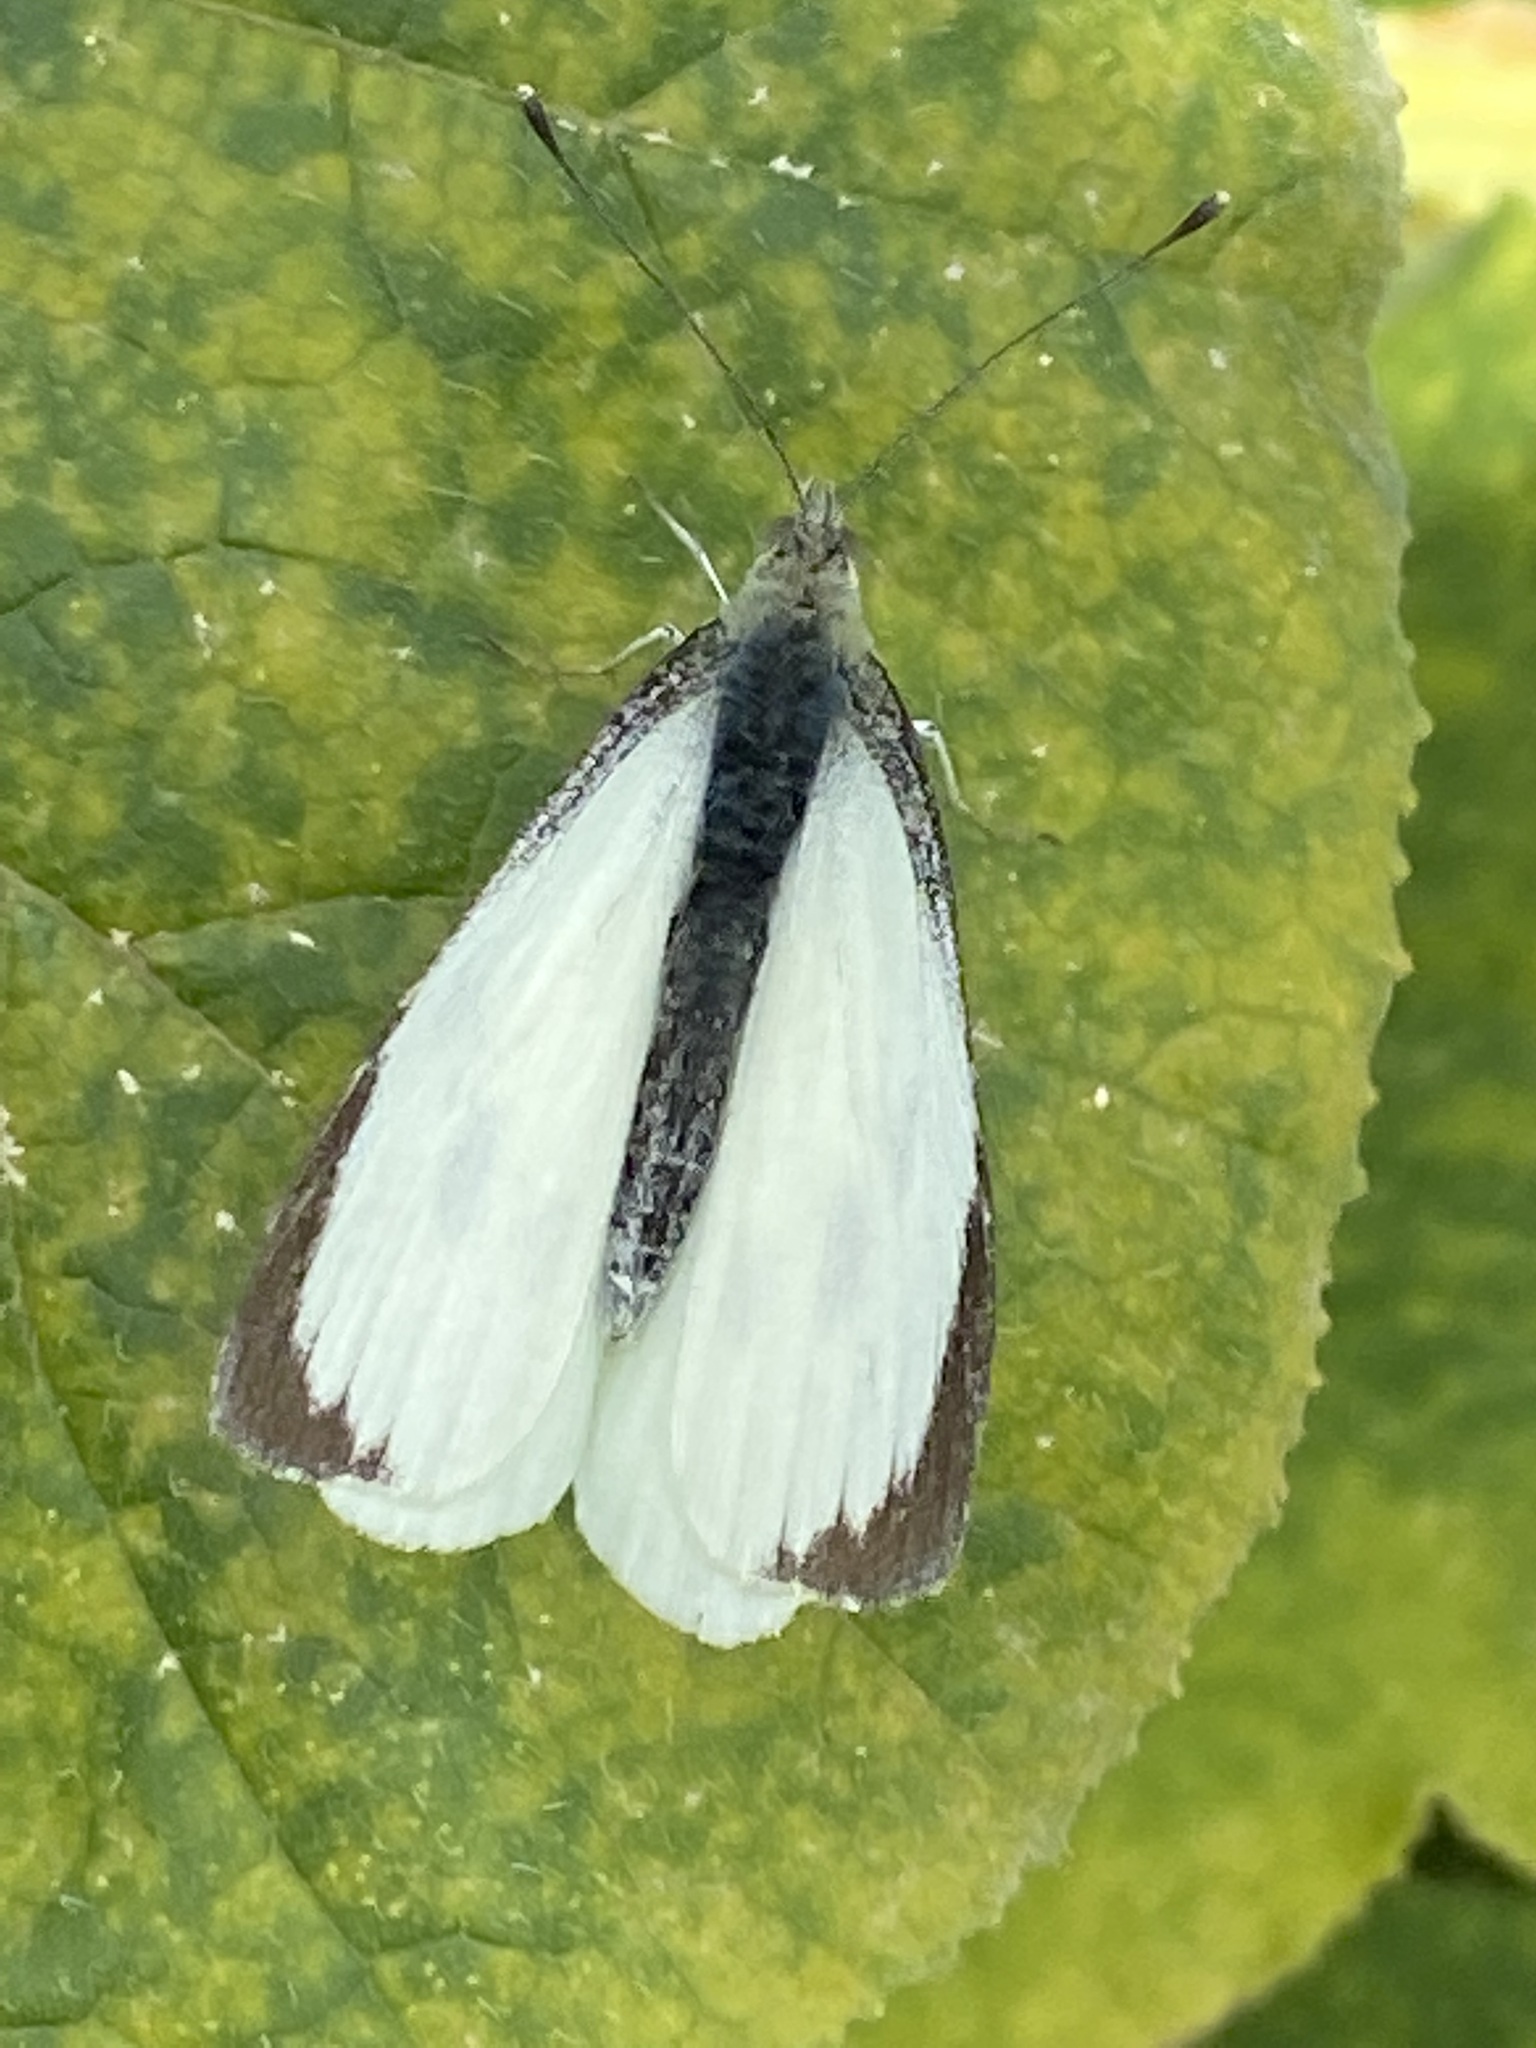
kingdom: Animalia
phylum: Arthropoda
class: Insecta
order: Lepidoptera
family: Pieridae
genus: Pieris
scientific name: Pieris brassicae
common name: Large white
